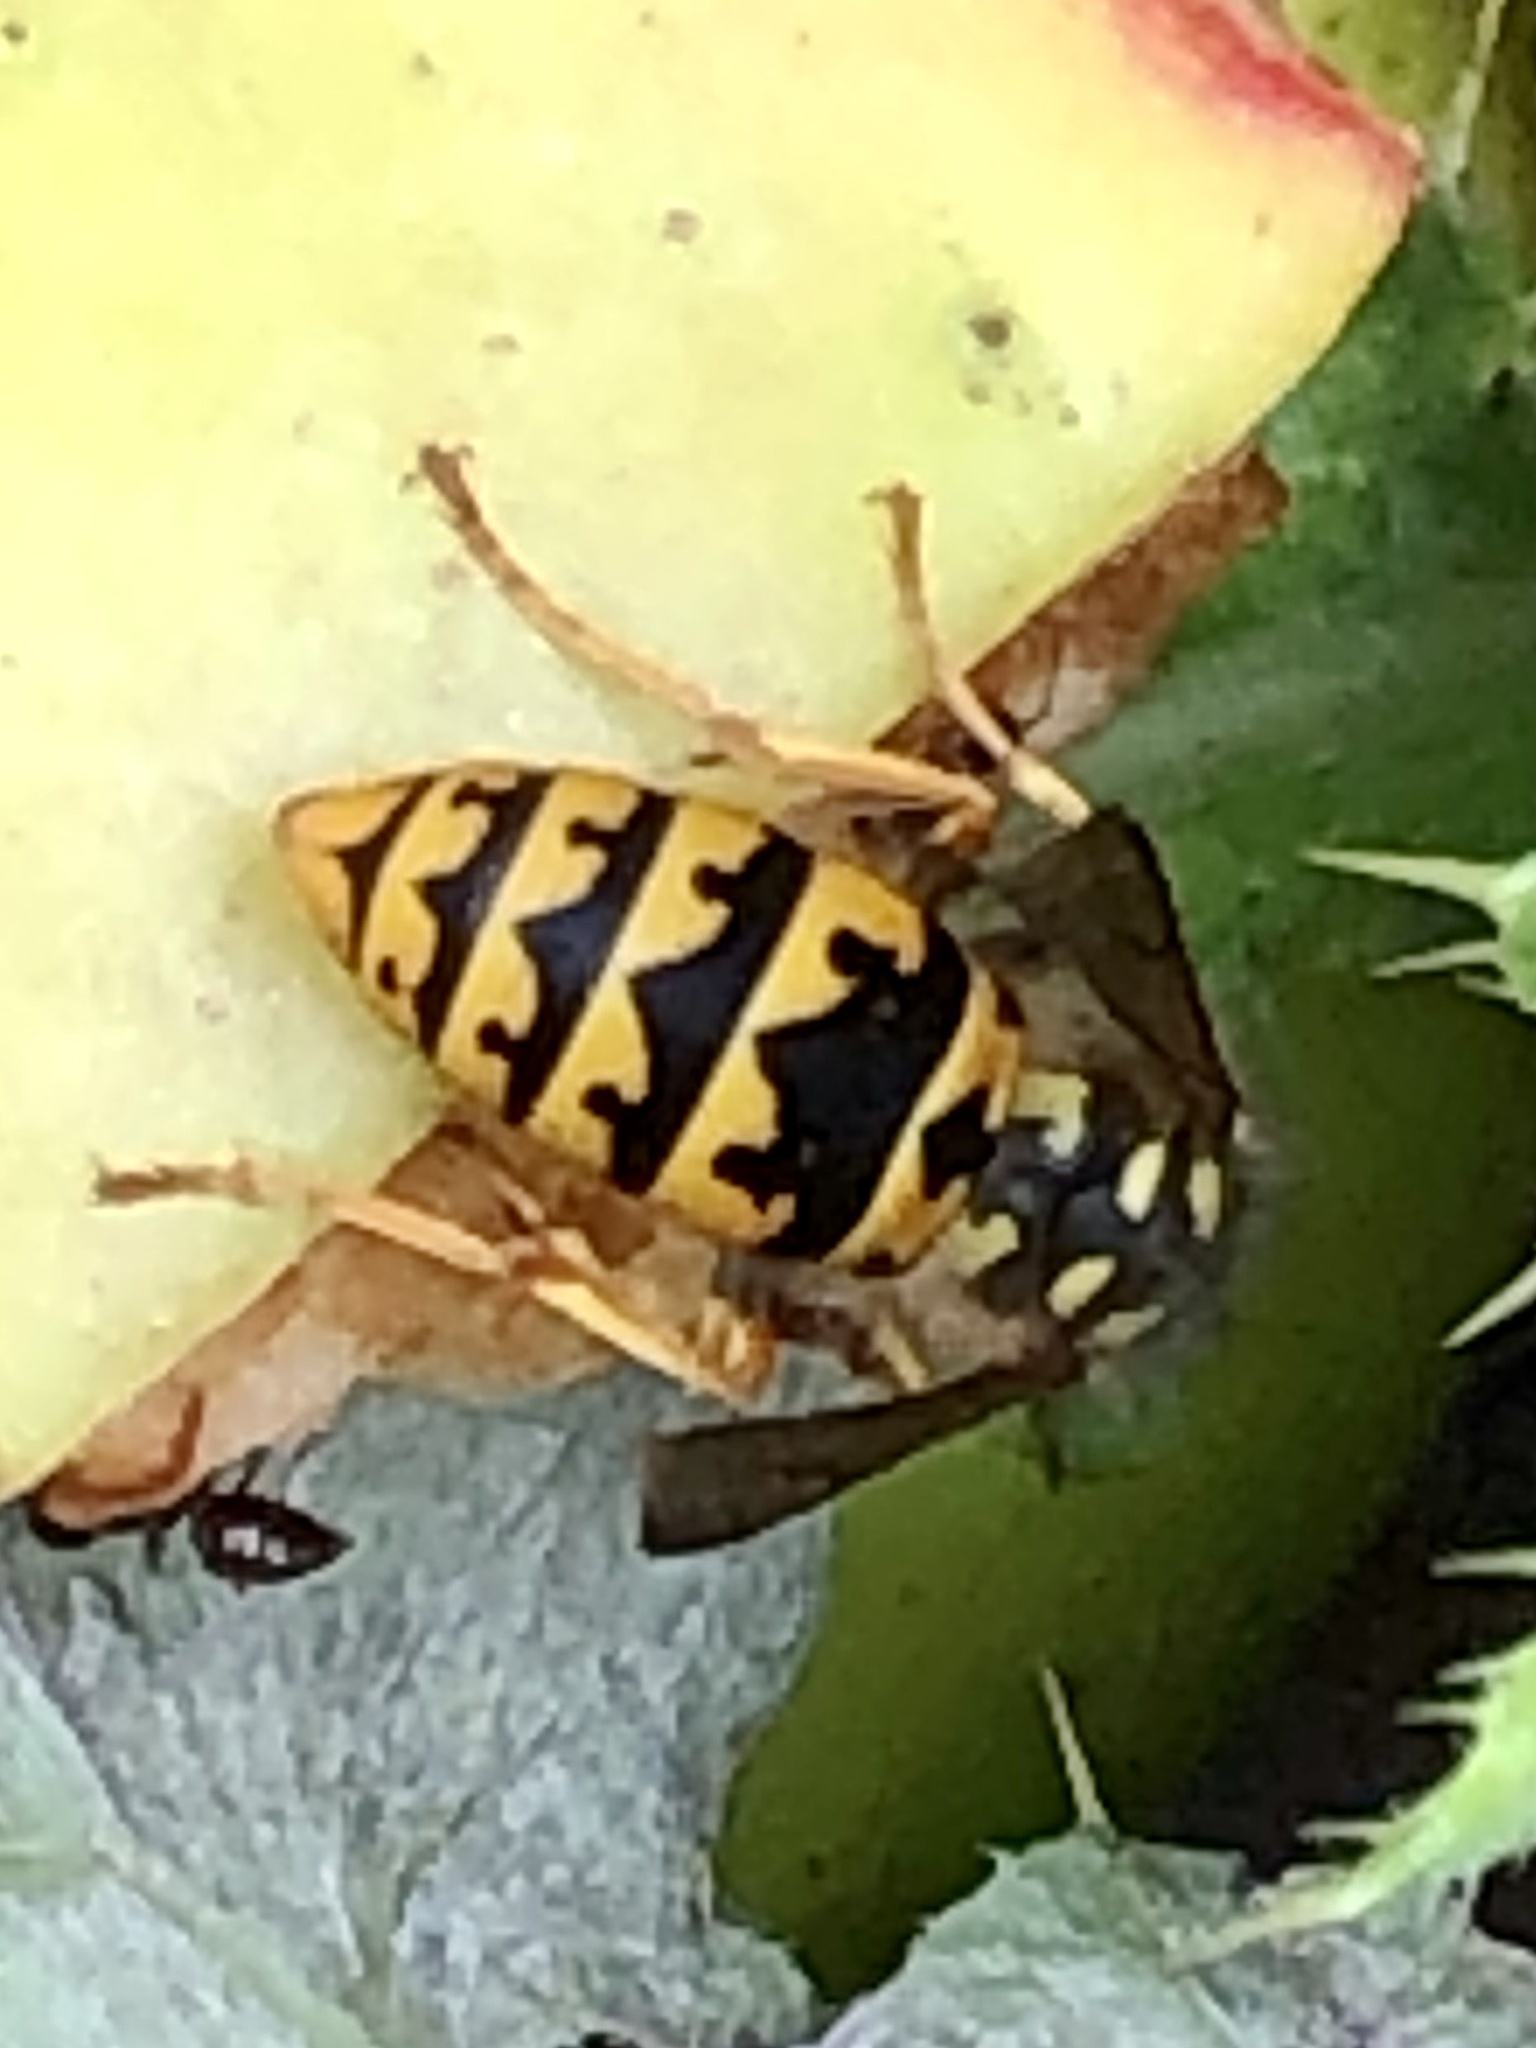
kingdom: Animalia
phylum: Arthropoda
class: Insecta
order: Hymenoptera
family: Vespidae
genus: Vespula
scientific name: Vespula germanica
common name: German wasp
